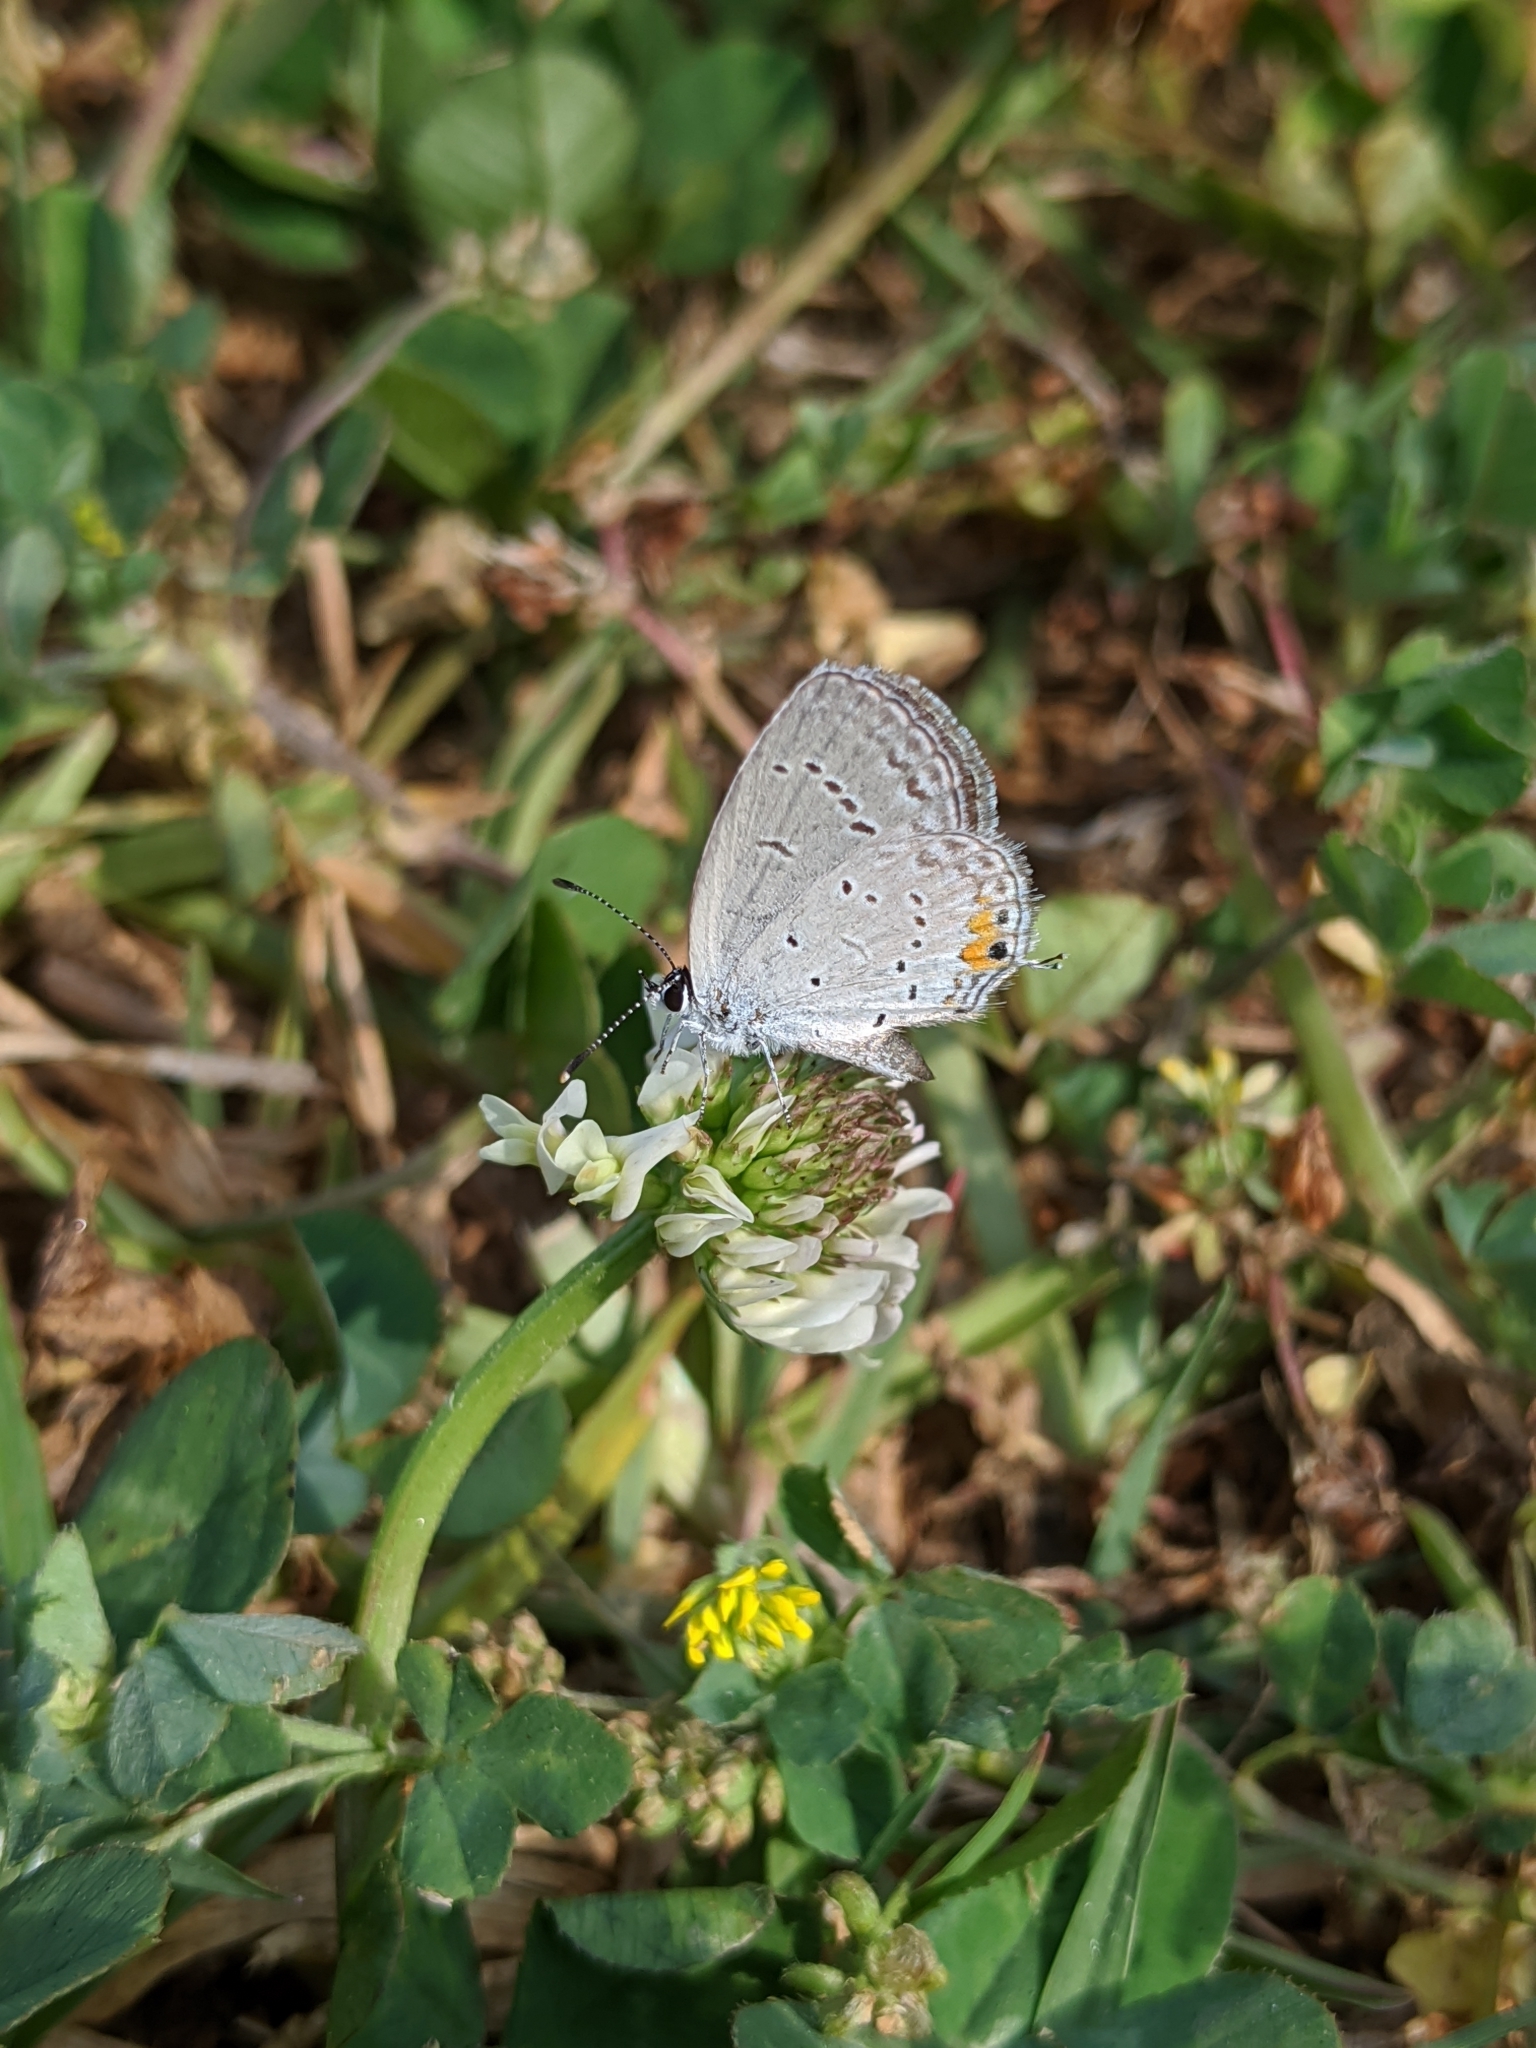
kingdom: Animalia
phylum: Arthropoda
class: Insecta
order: Lepidoptera
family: Lycaenidae
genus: Elkalyce
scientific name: Elkalyce comyntas
